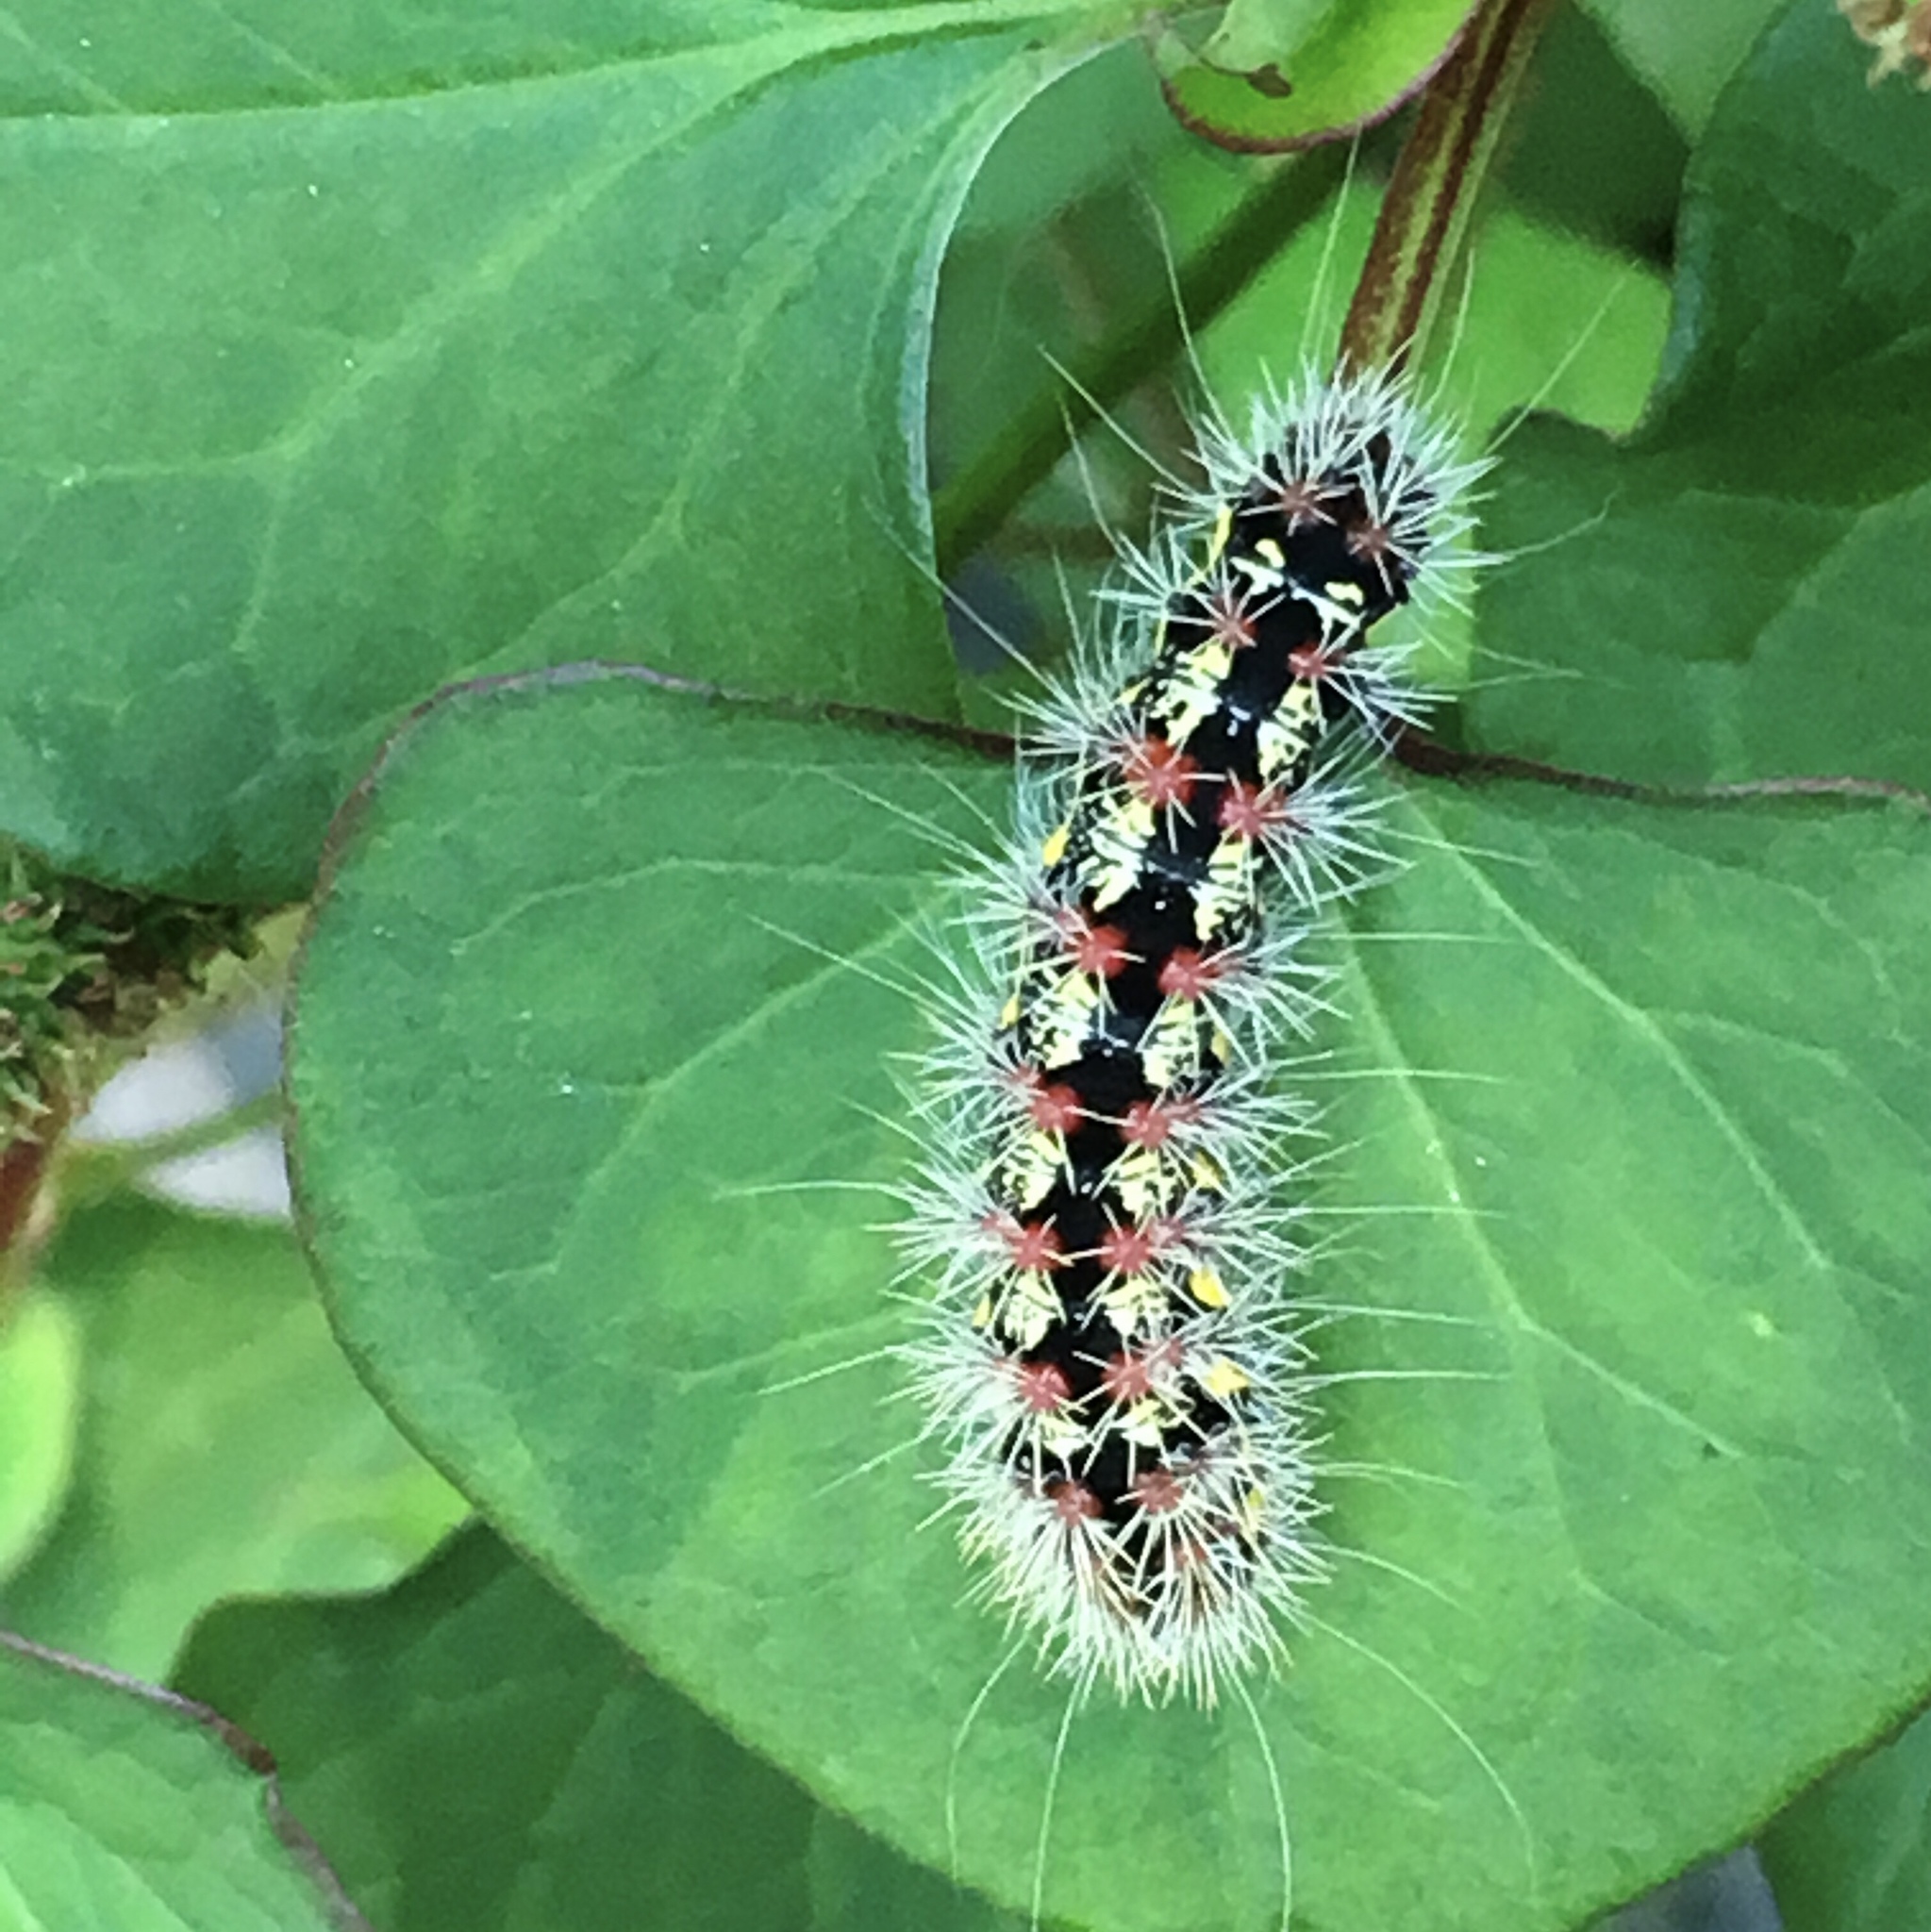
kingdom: Animalia
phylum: Arthropoda
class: Insecta
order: Lepidoptera
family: Noctuidae
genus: Acronicta
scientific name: Acronicta oblinita
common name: Smeared dagger
